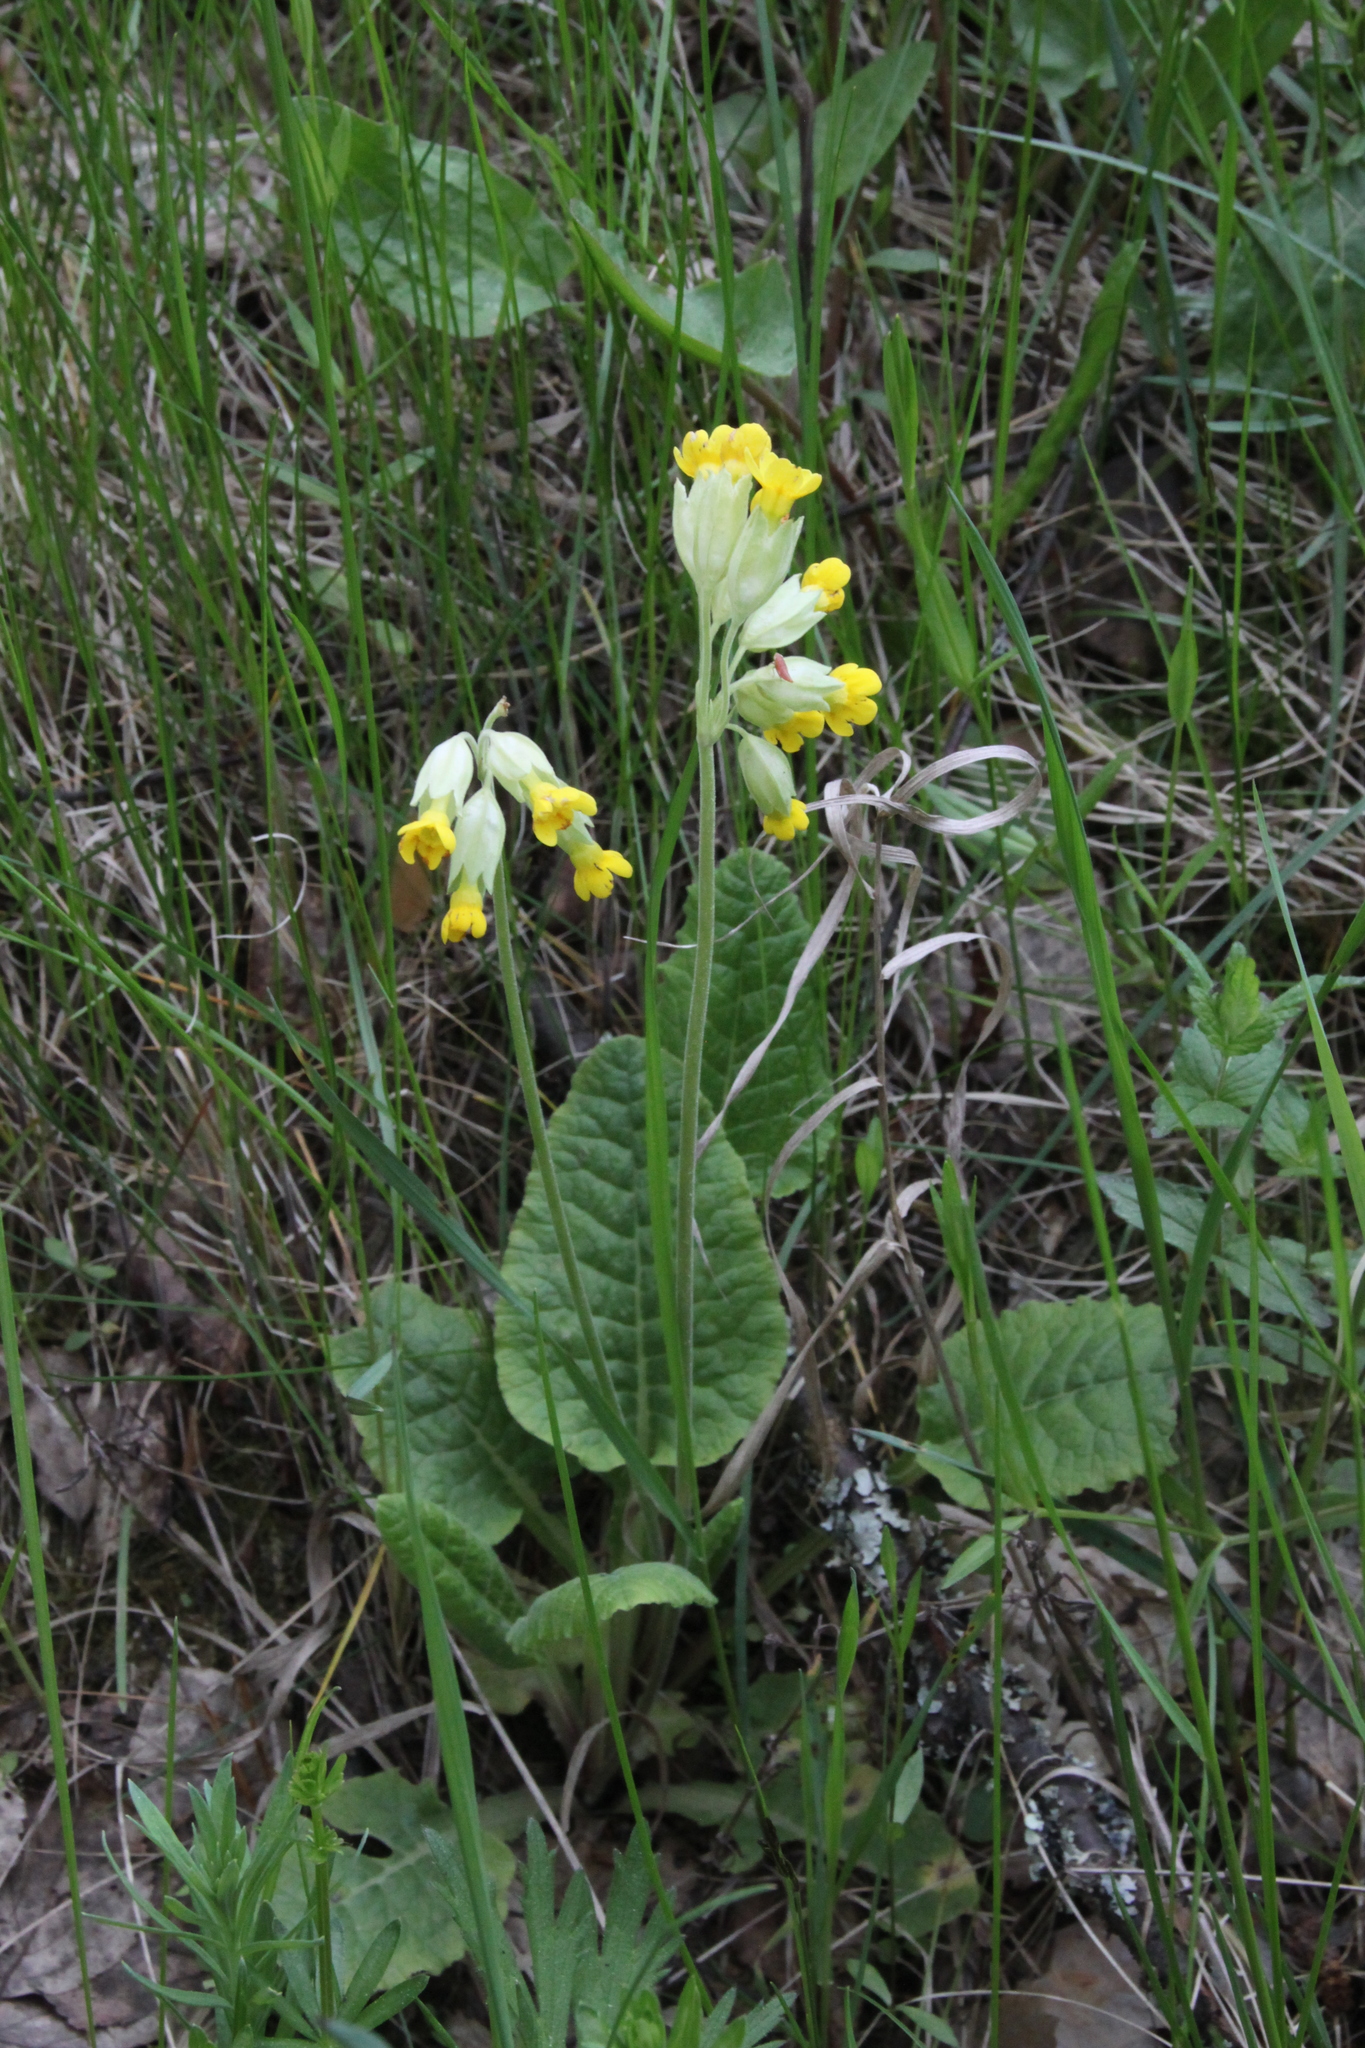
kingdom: Plantae
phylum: Tracheophyta
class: Magnoliopsida
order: Ericales
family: Primulaceae
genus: Primula
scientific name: Primula veris
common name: Cowslip
